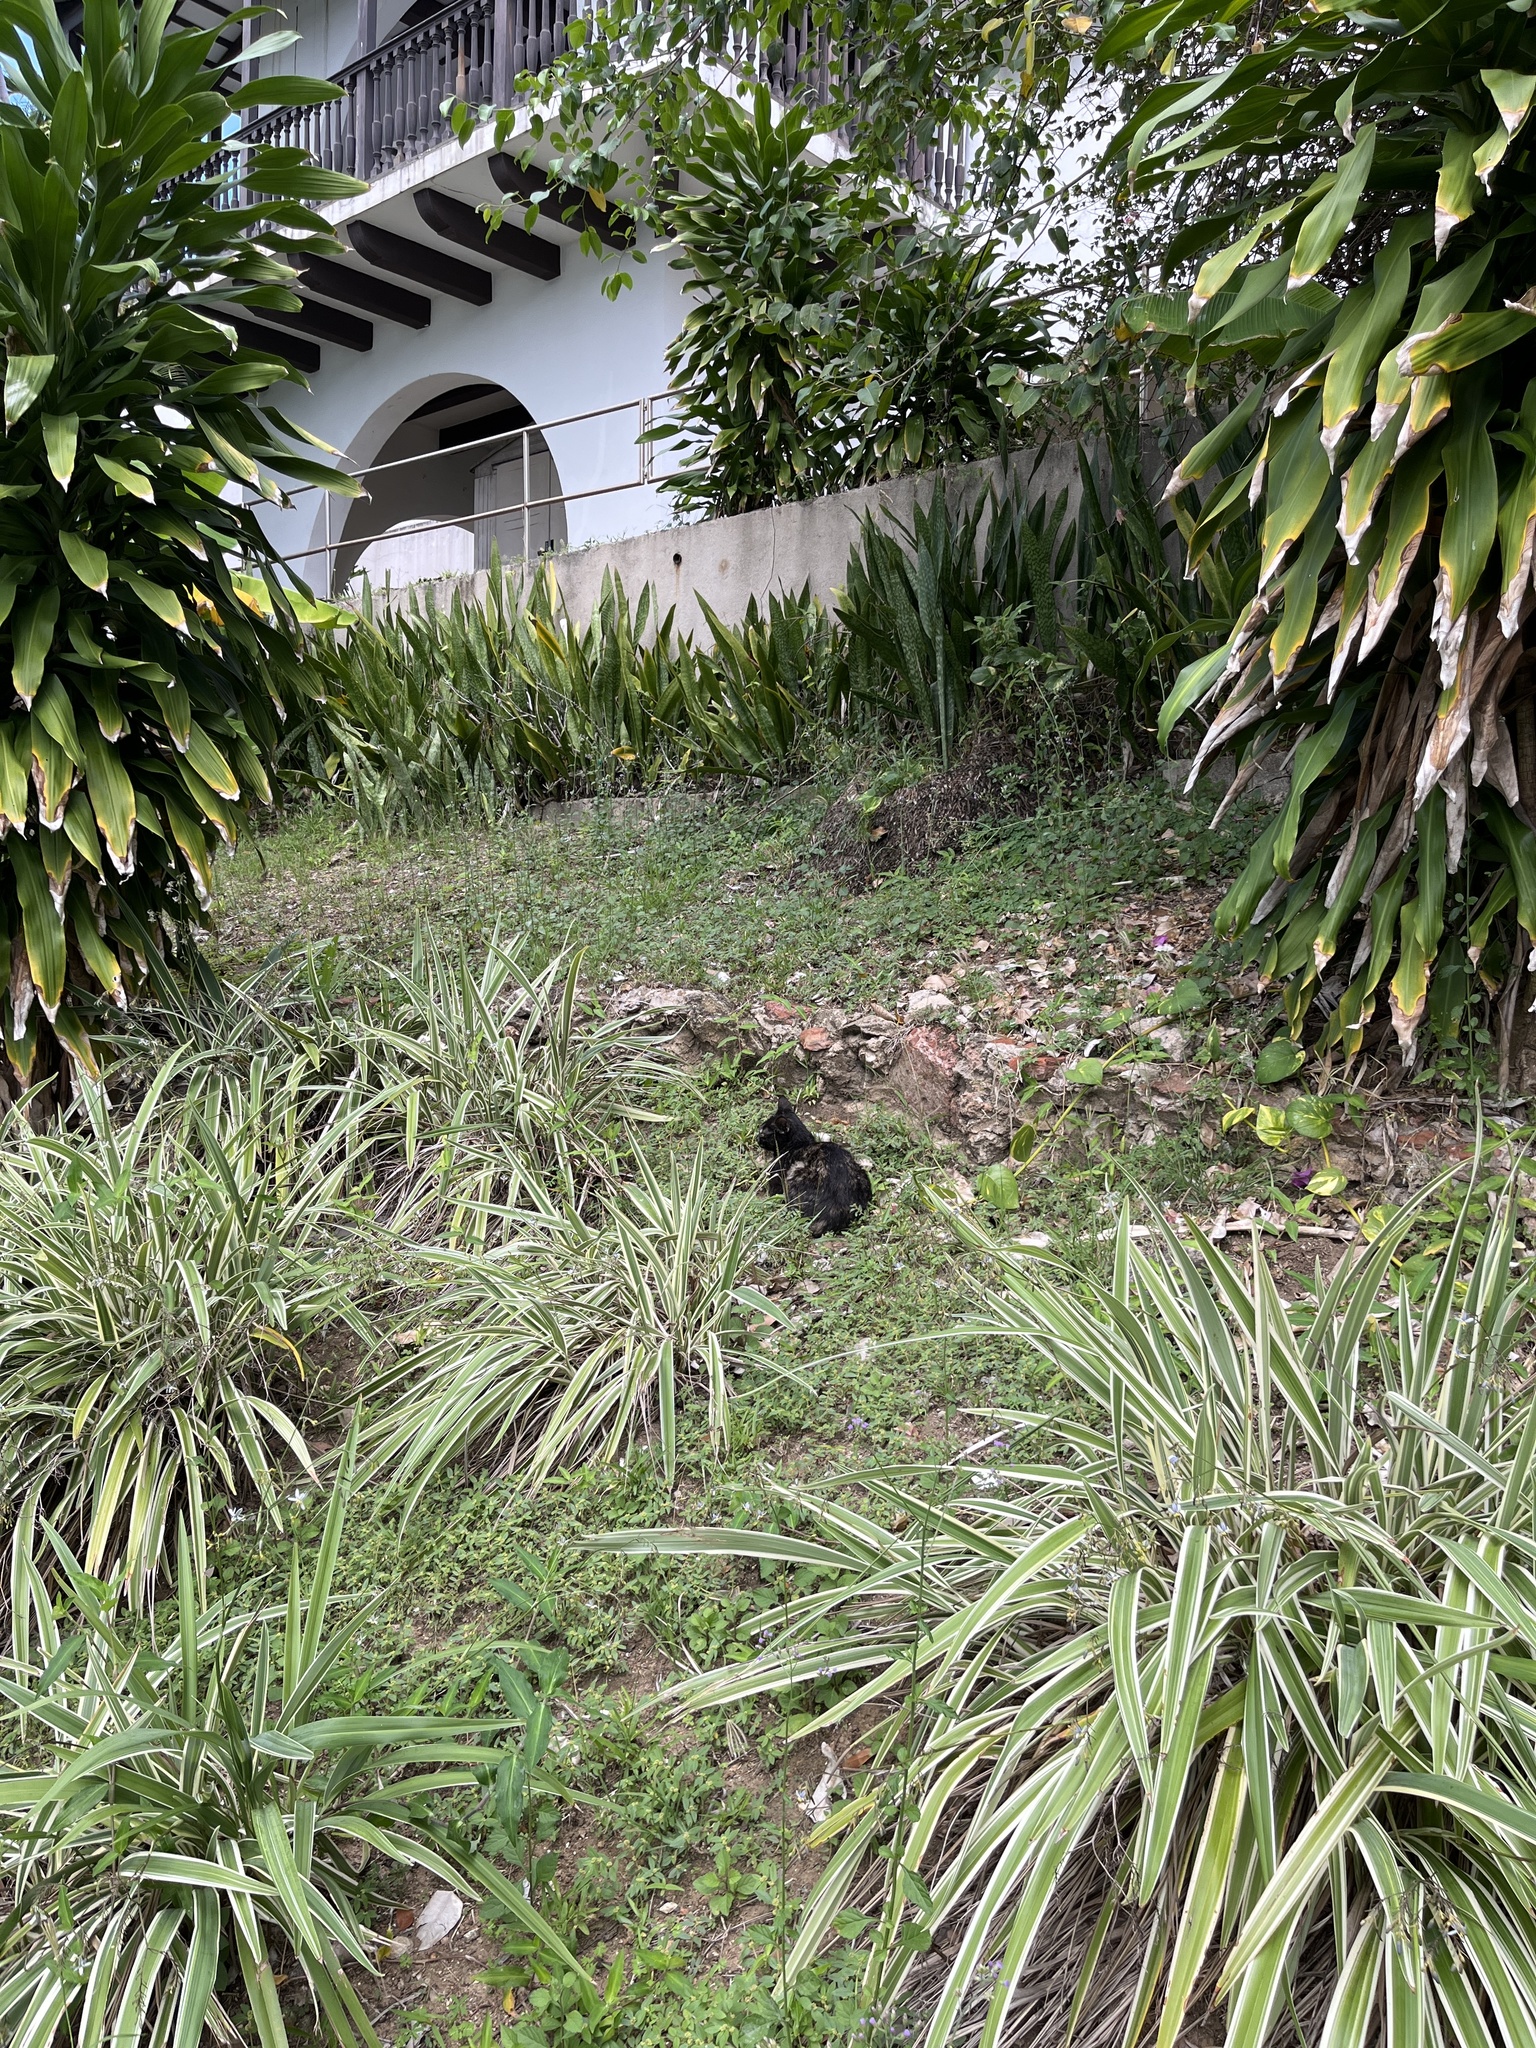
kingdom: Animalia
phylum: Chordata
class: Mammalia
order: Carnivora
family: Felidae
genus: Felis
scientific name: Felis catus
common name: Domestic cat
